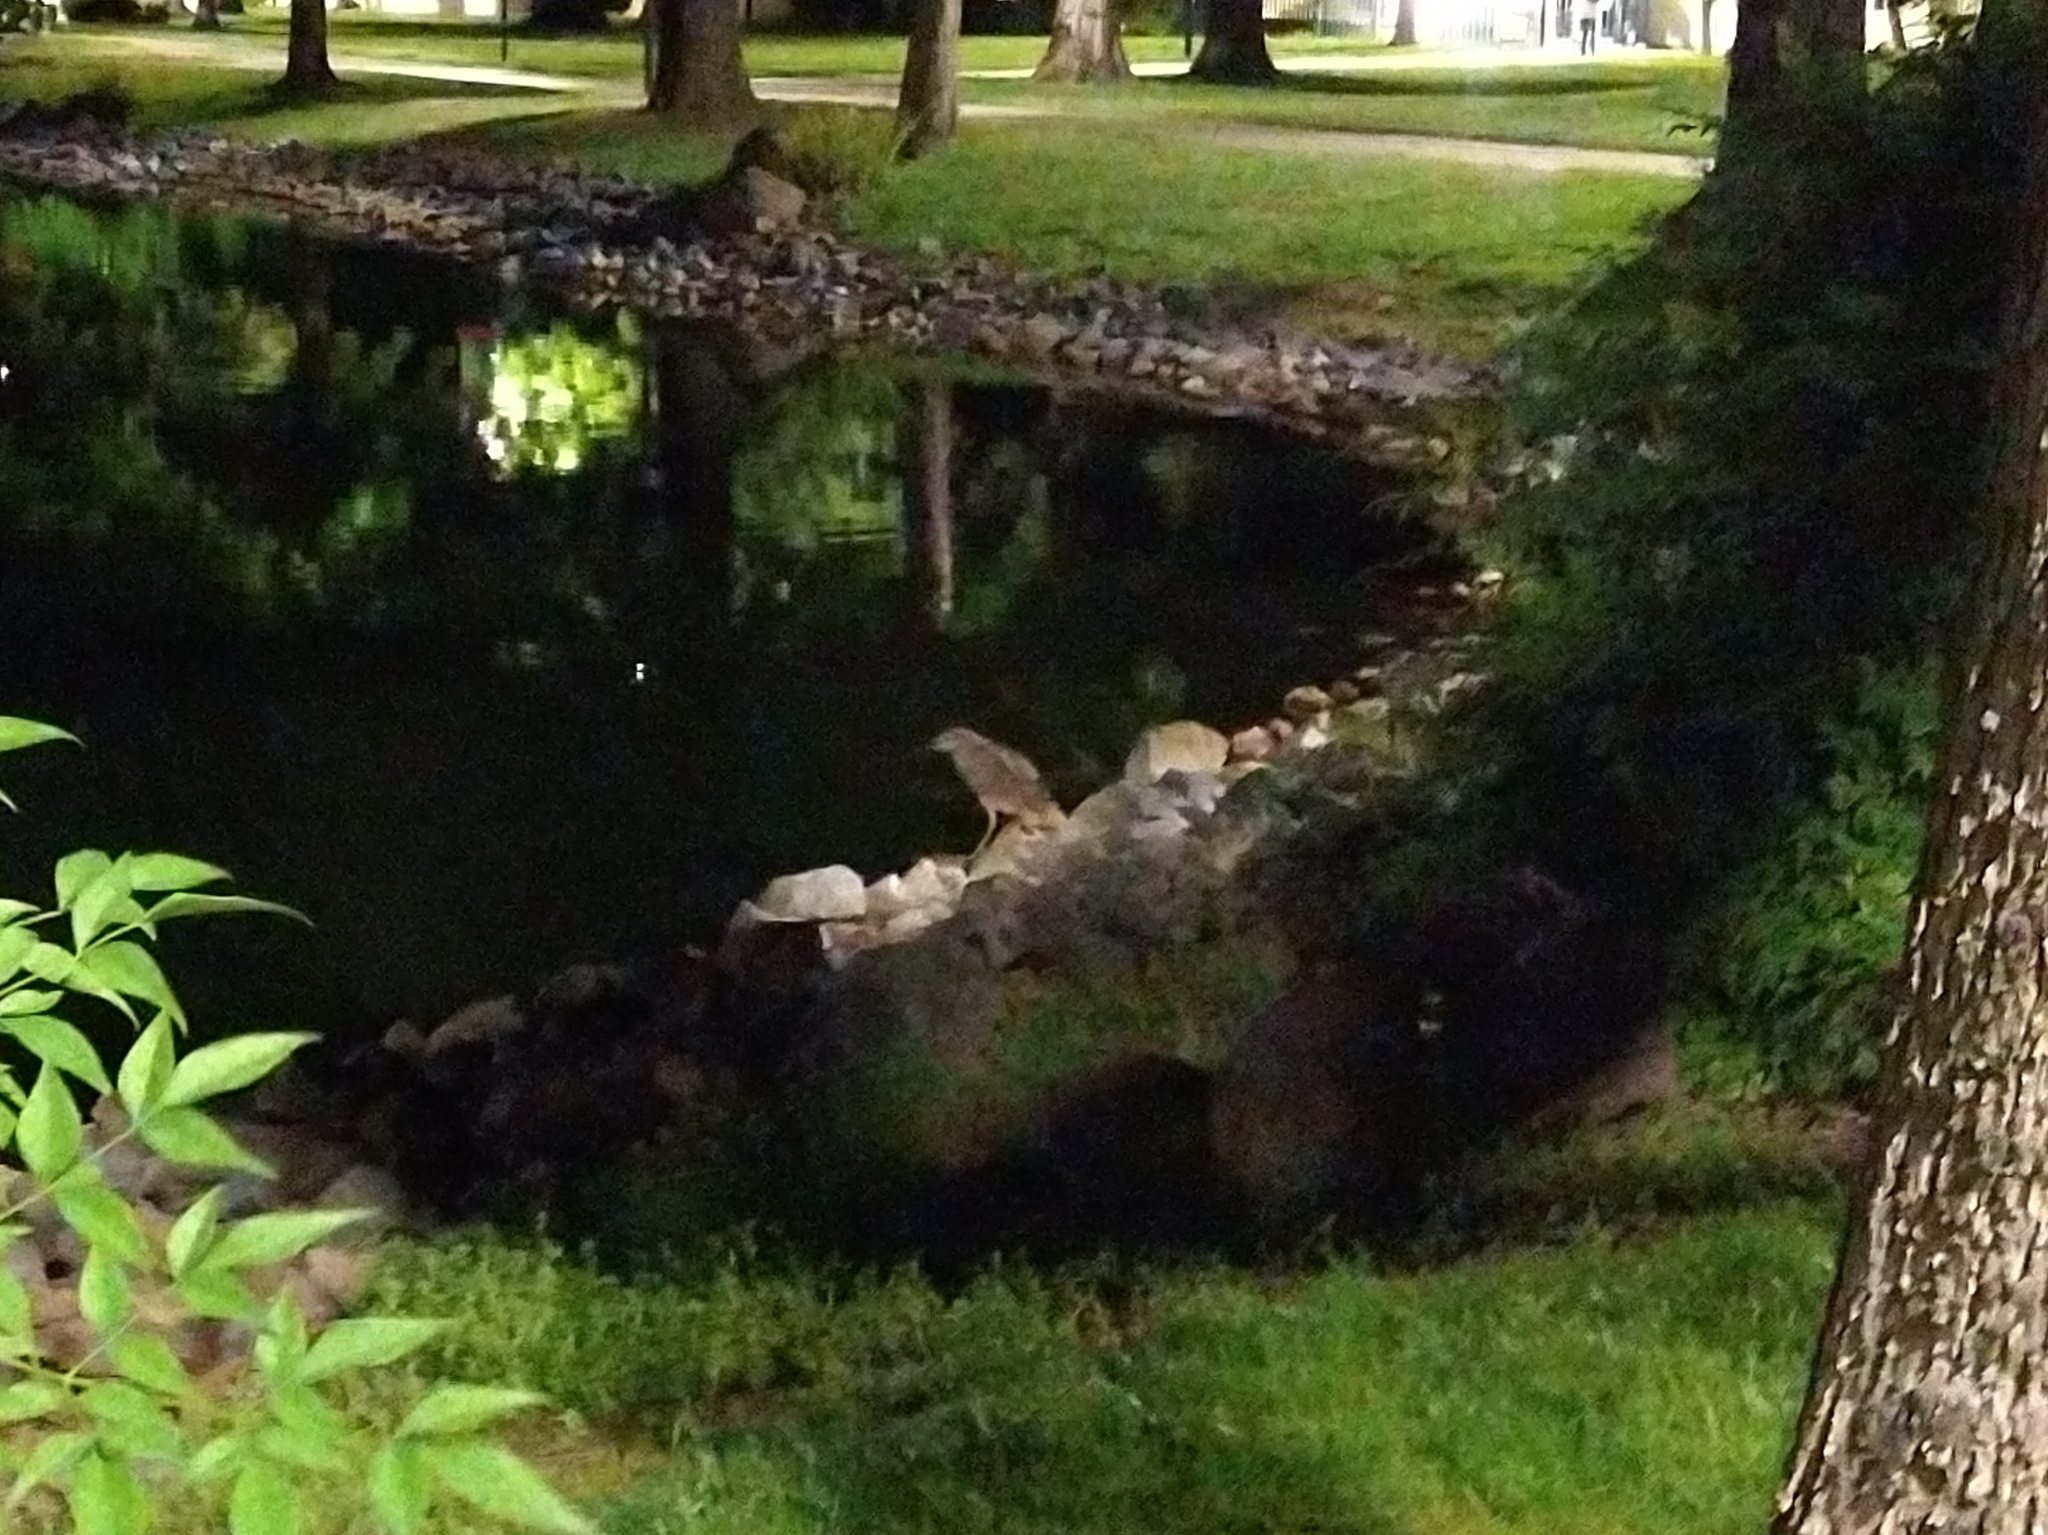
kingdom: Animalia
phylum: Chordata
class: Aves
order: Pelecaniformes
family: Ardeidae
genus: Nycticorax
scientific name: Nycticorax nycticorax
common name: Black-crowned night heron
